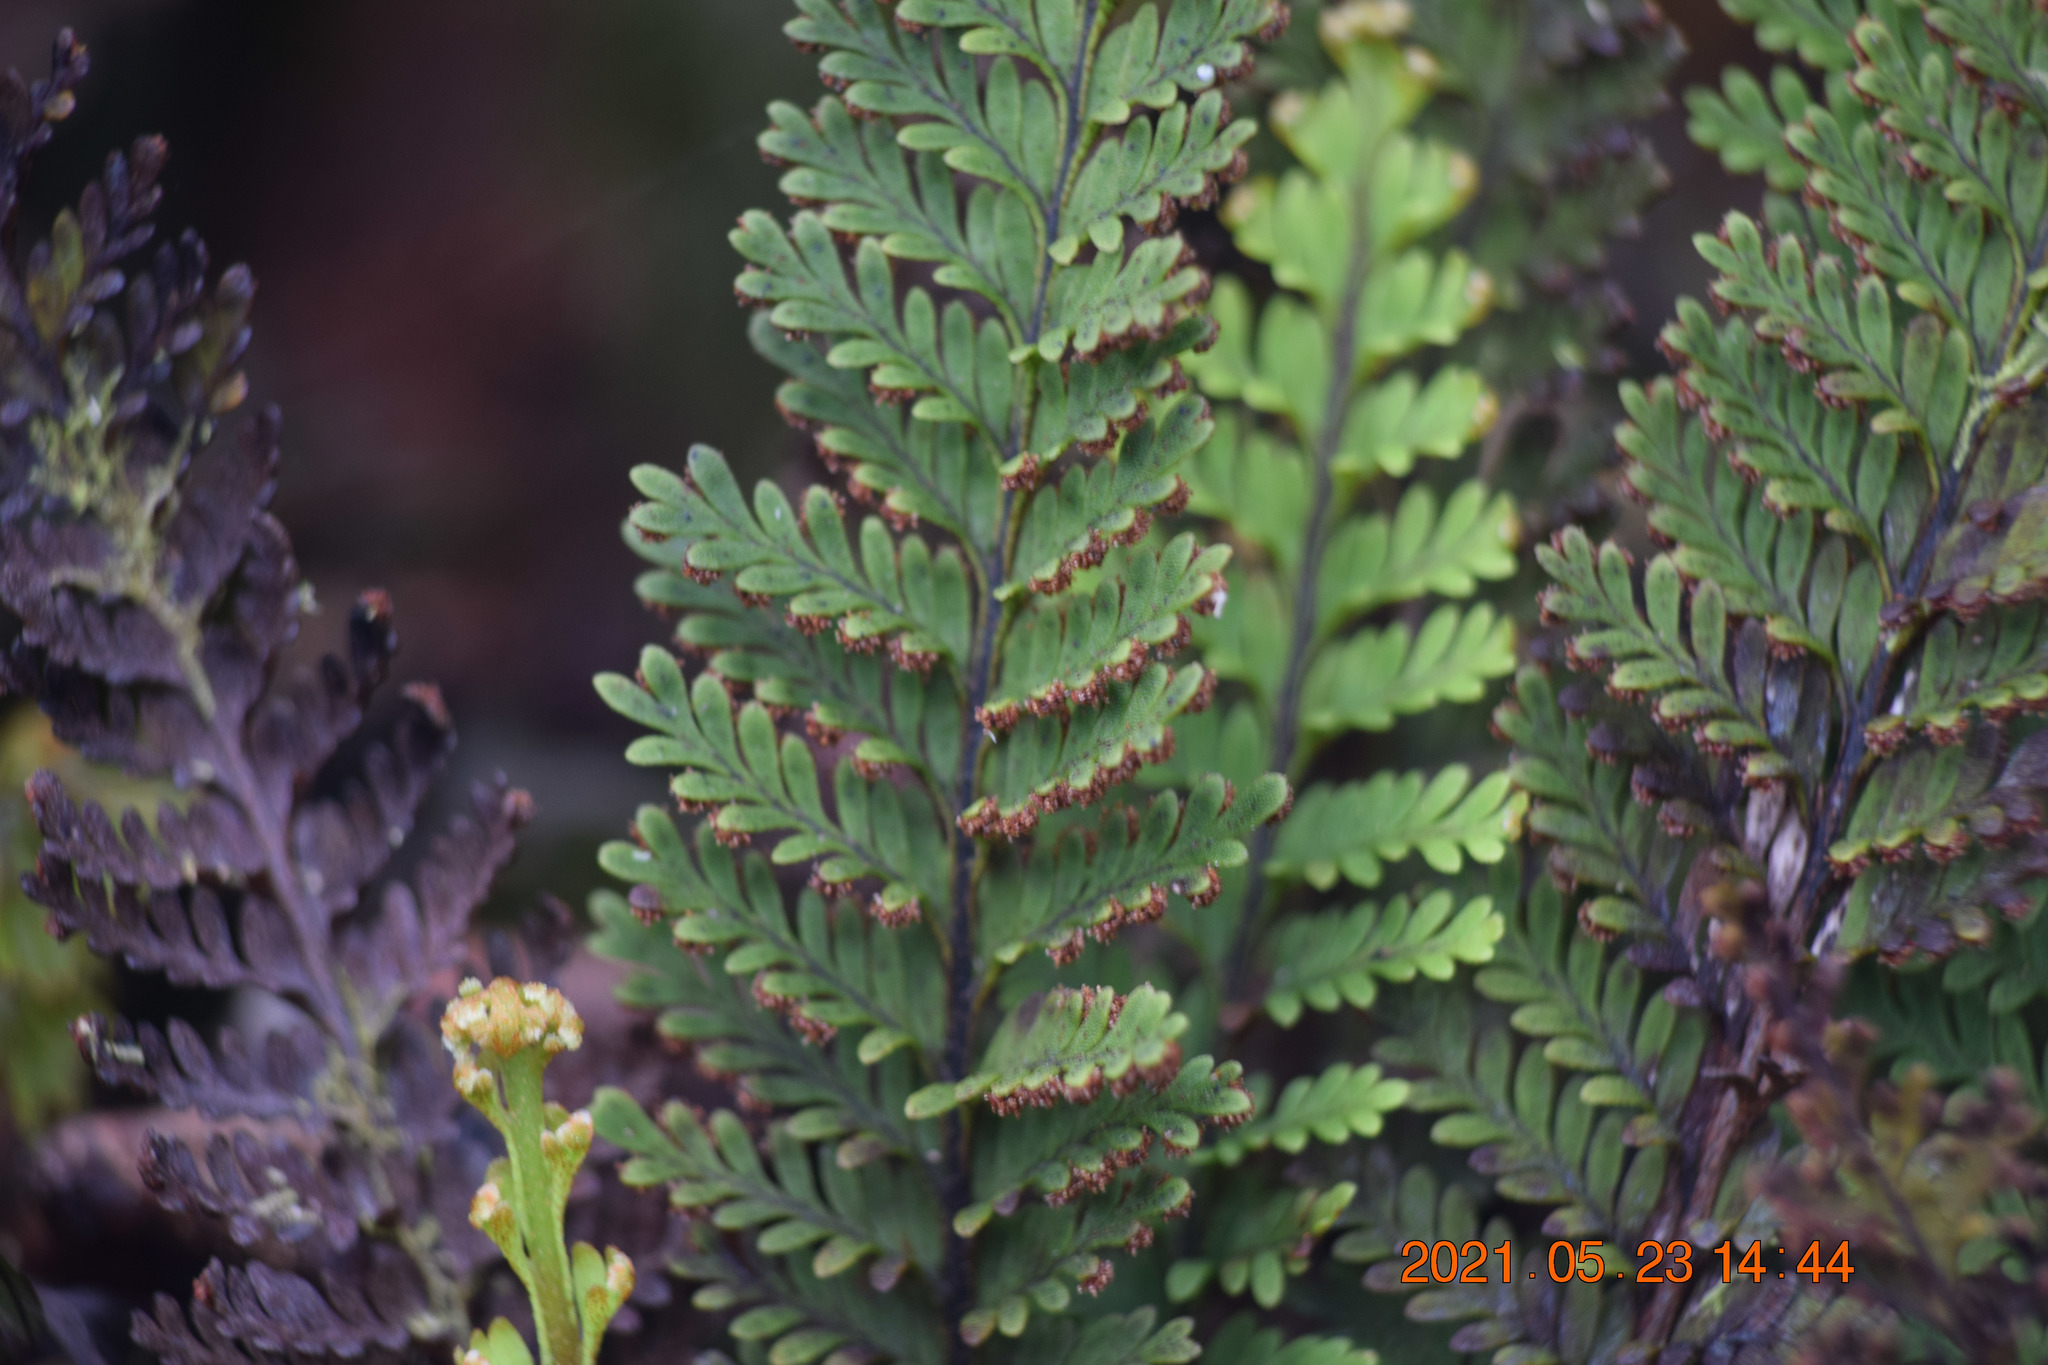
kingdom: Plantae
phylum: Tracheophyta
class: Polypodiopsida
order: Polypodiales
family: Polypodiaceae
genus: Adenophorus
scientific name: Adenophorus tamariscinus
